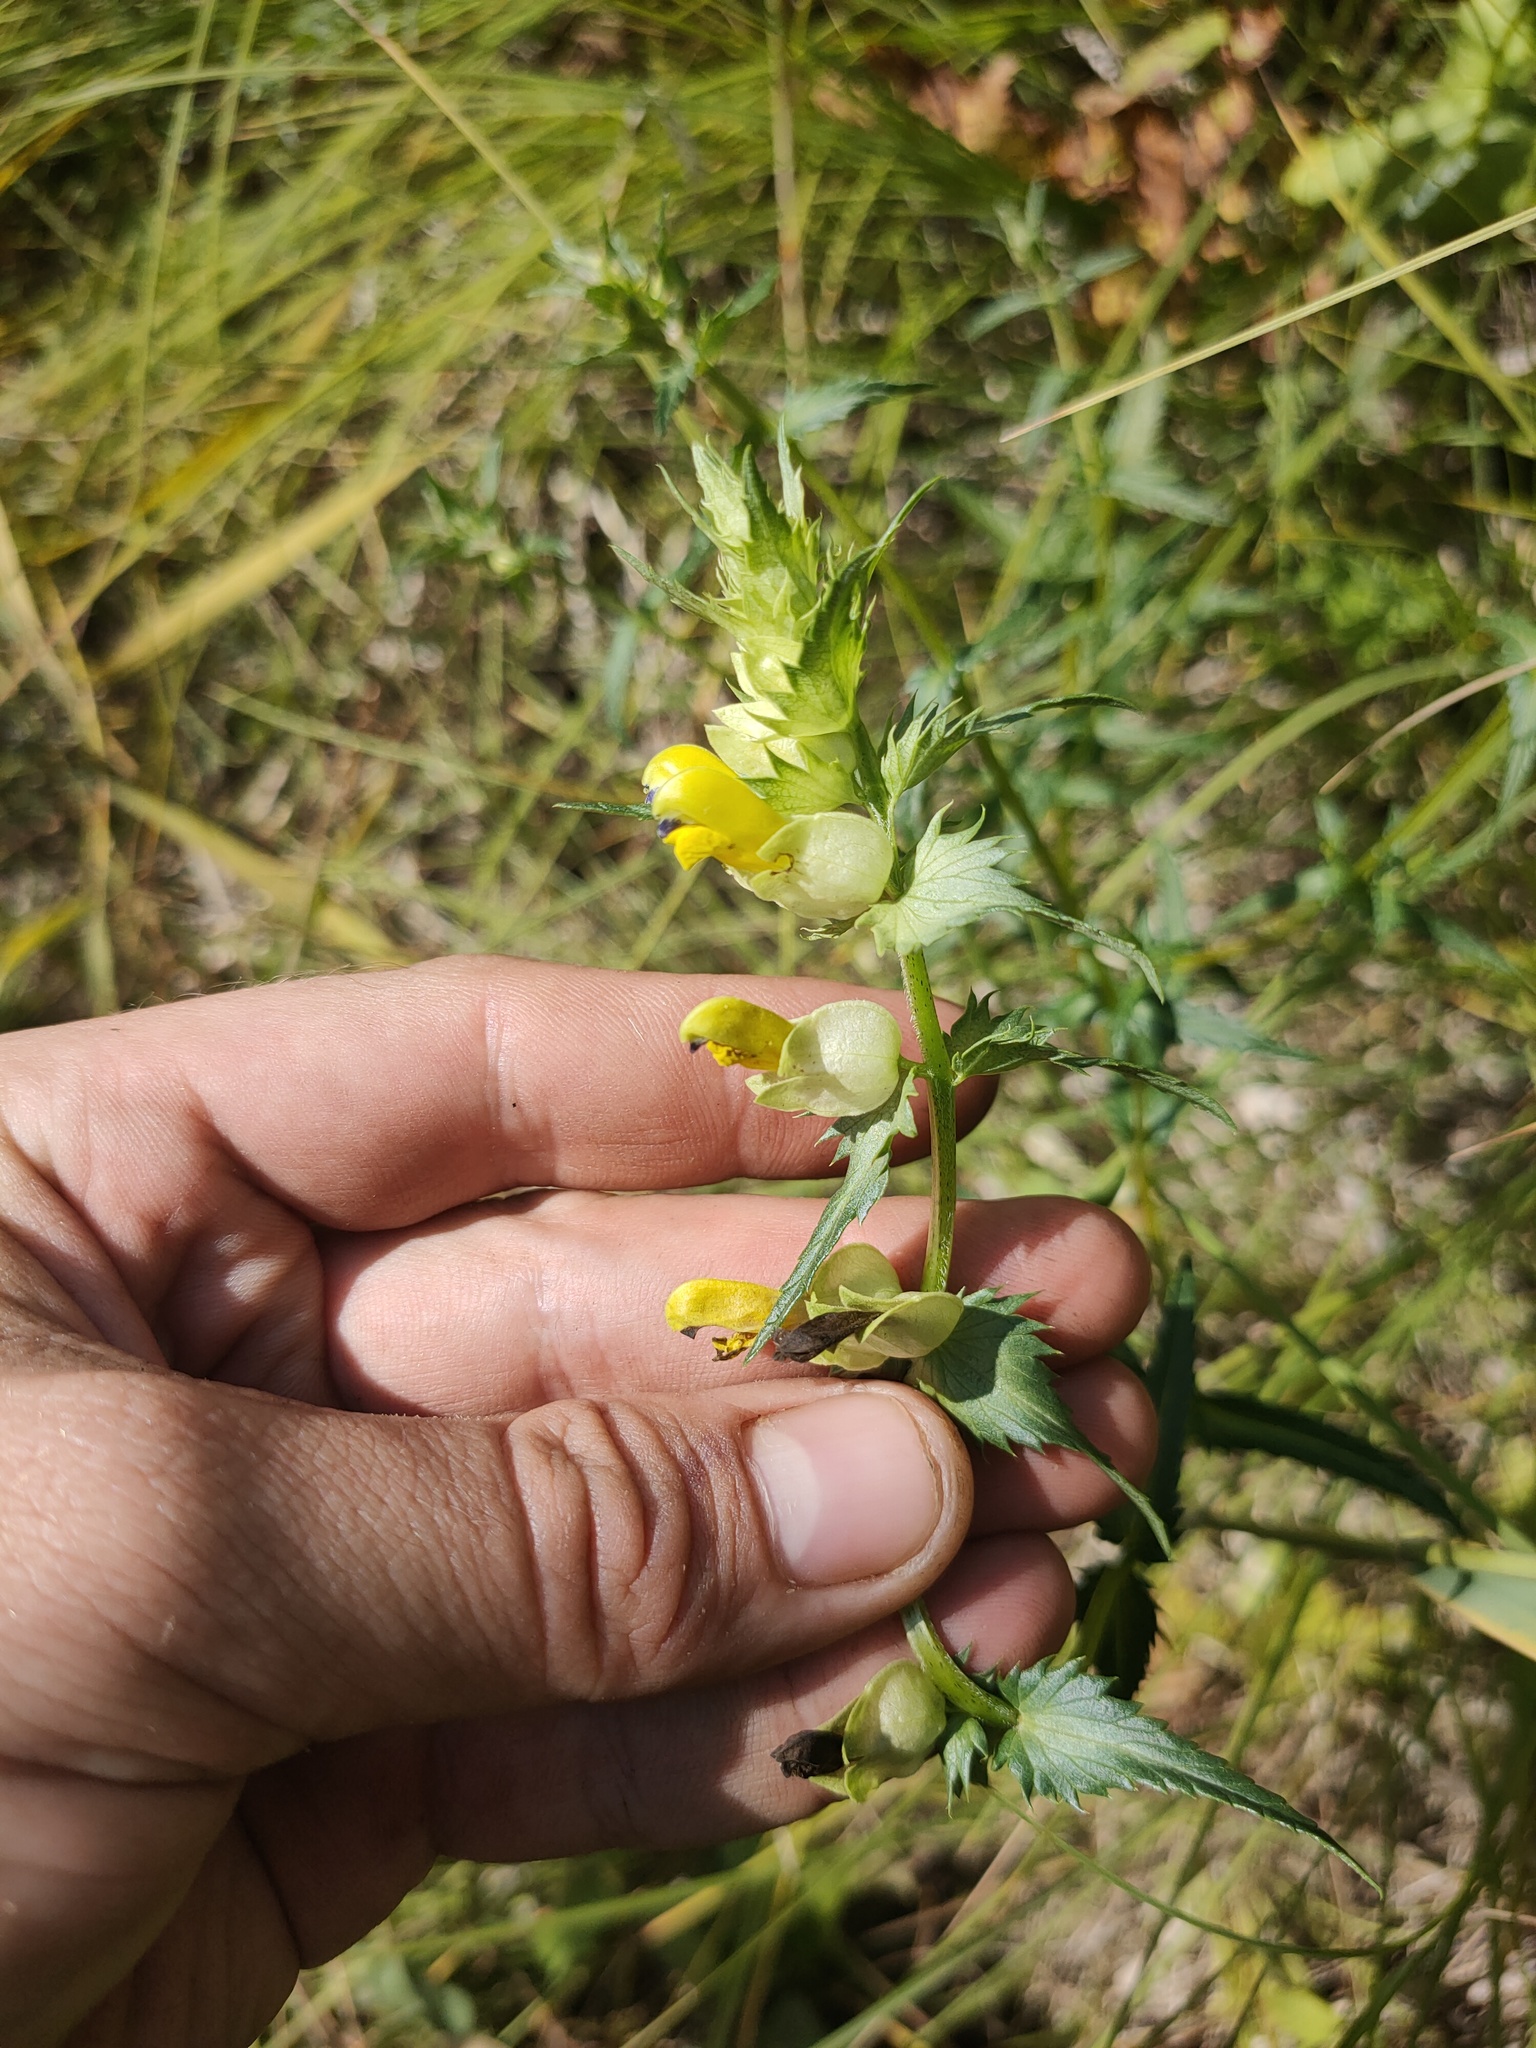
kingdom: Plantae
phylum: Tracheophyta
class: Magnoliopsida
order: Lamiales
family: Orobanchaceae
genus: Rhinanthus
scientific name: Rhinanthus serotinus
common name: Late-flowering yellow rattle
